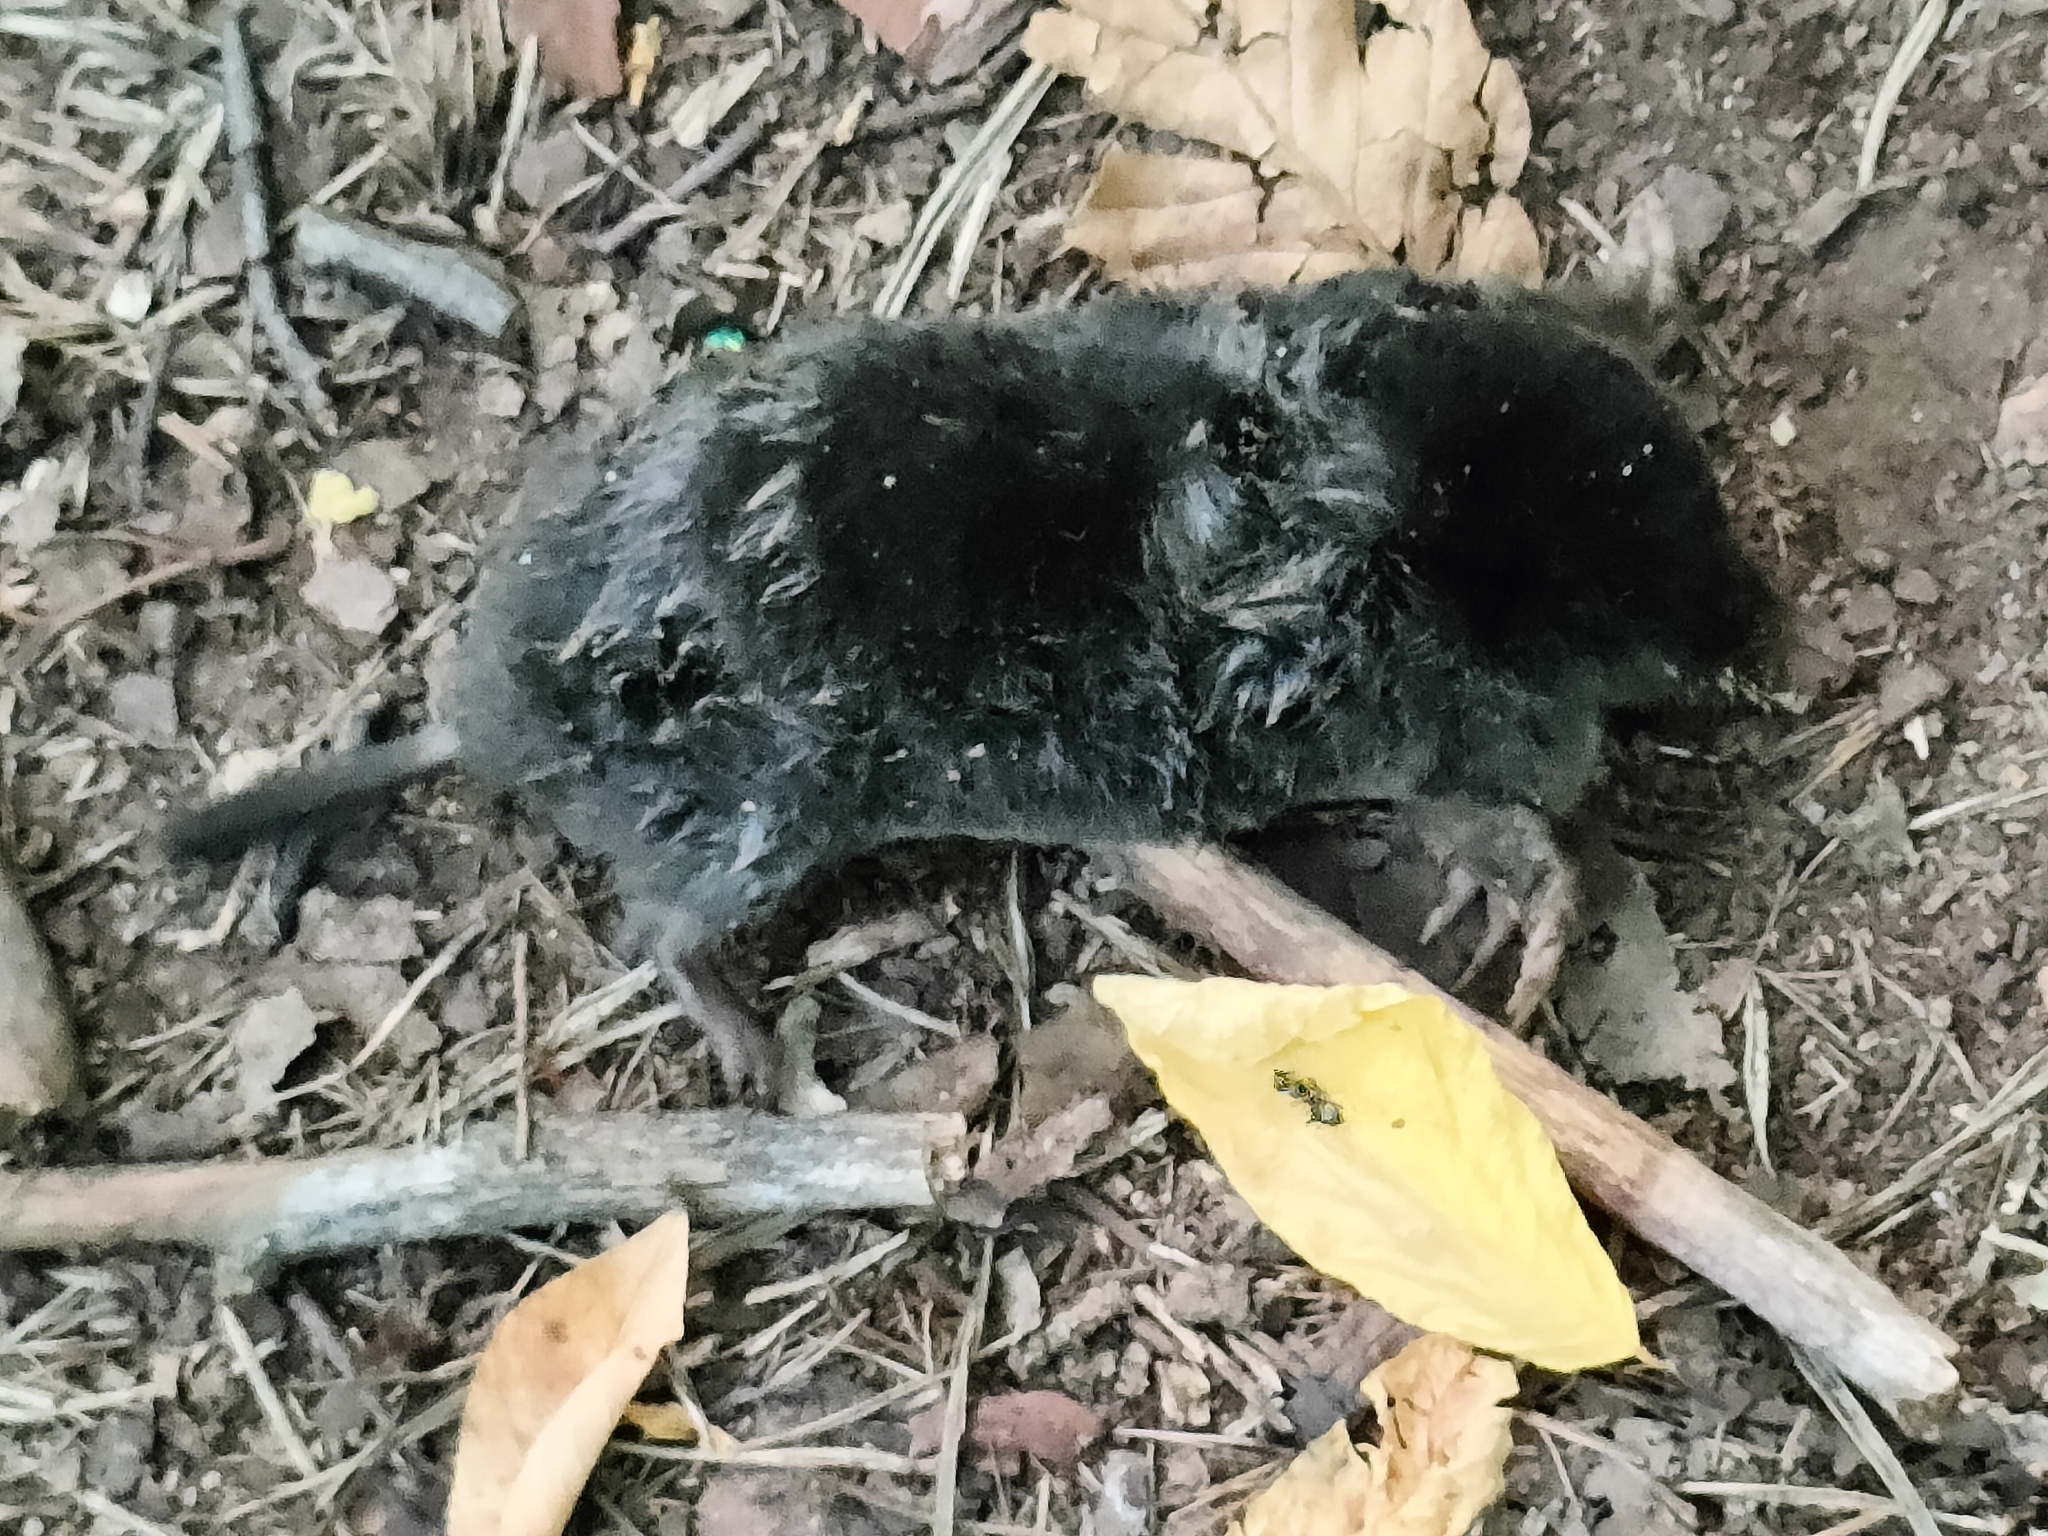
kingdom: Animalia
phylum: Chordata
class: Mammalia
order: Soricomorpha
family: Talpidae
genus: Talpa
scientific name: Talpa
